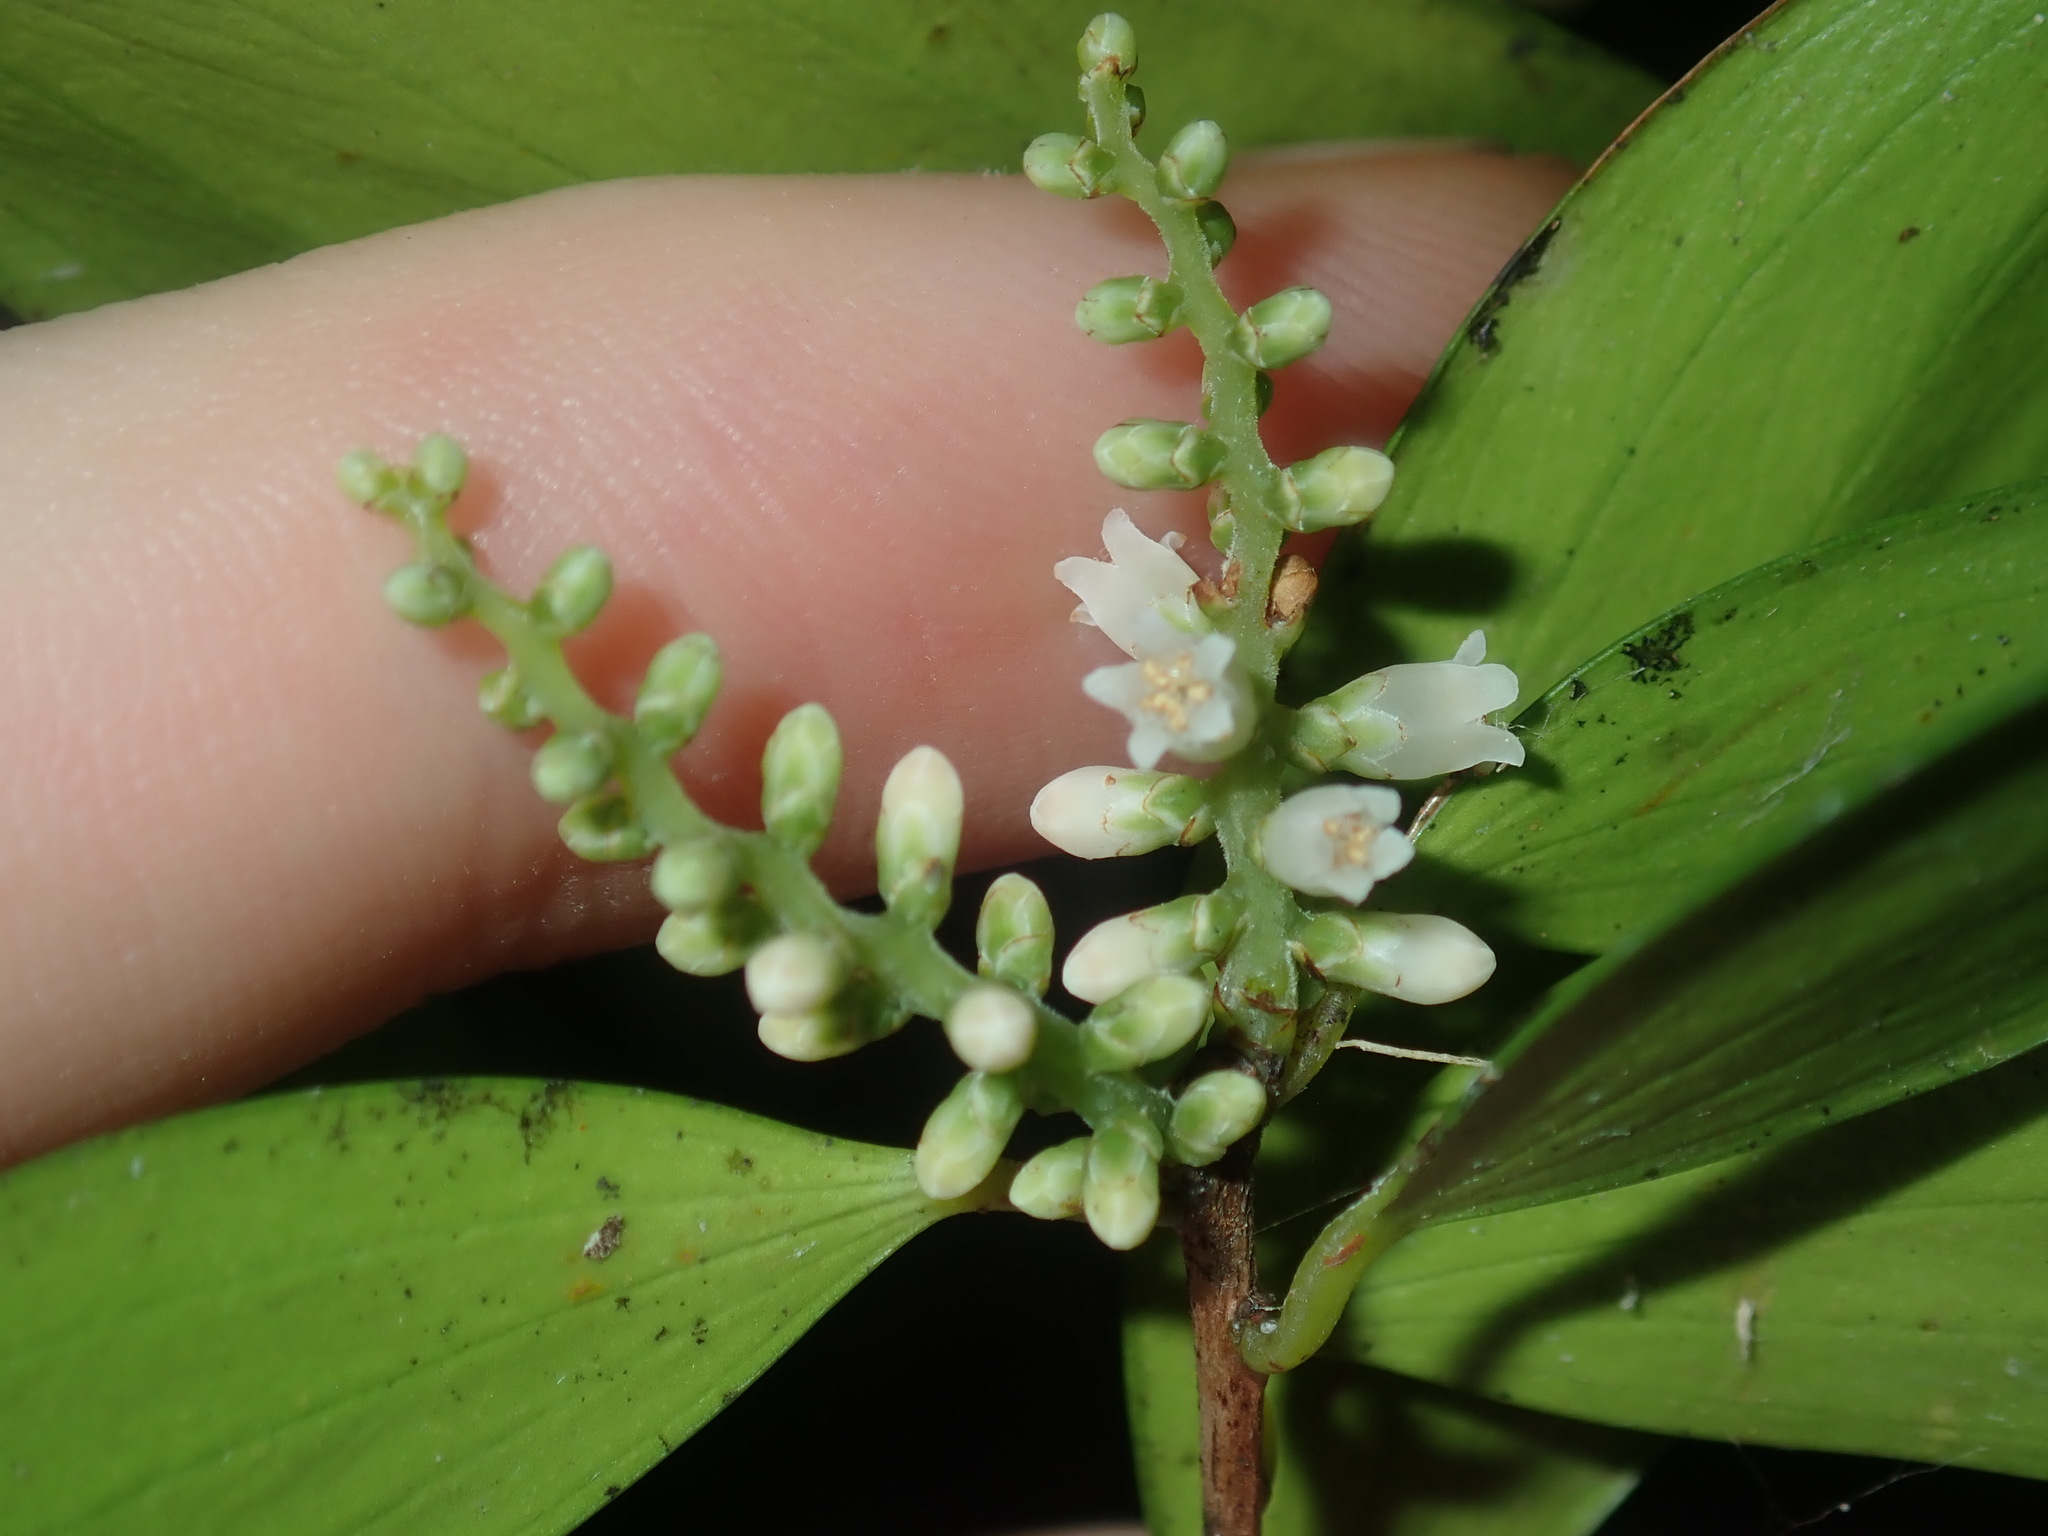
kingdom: Plantae
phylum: Tracheophyta
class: Magnoliopsida
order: Ericales
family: Ericaceae
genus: Trochocarpa
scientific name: Trochocarpa laurina
